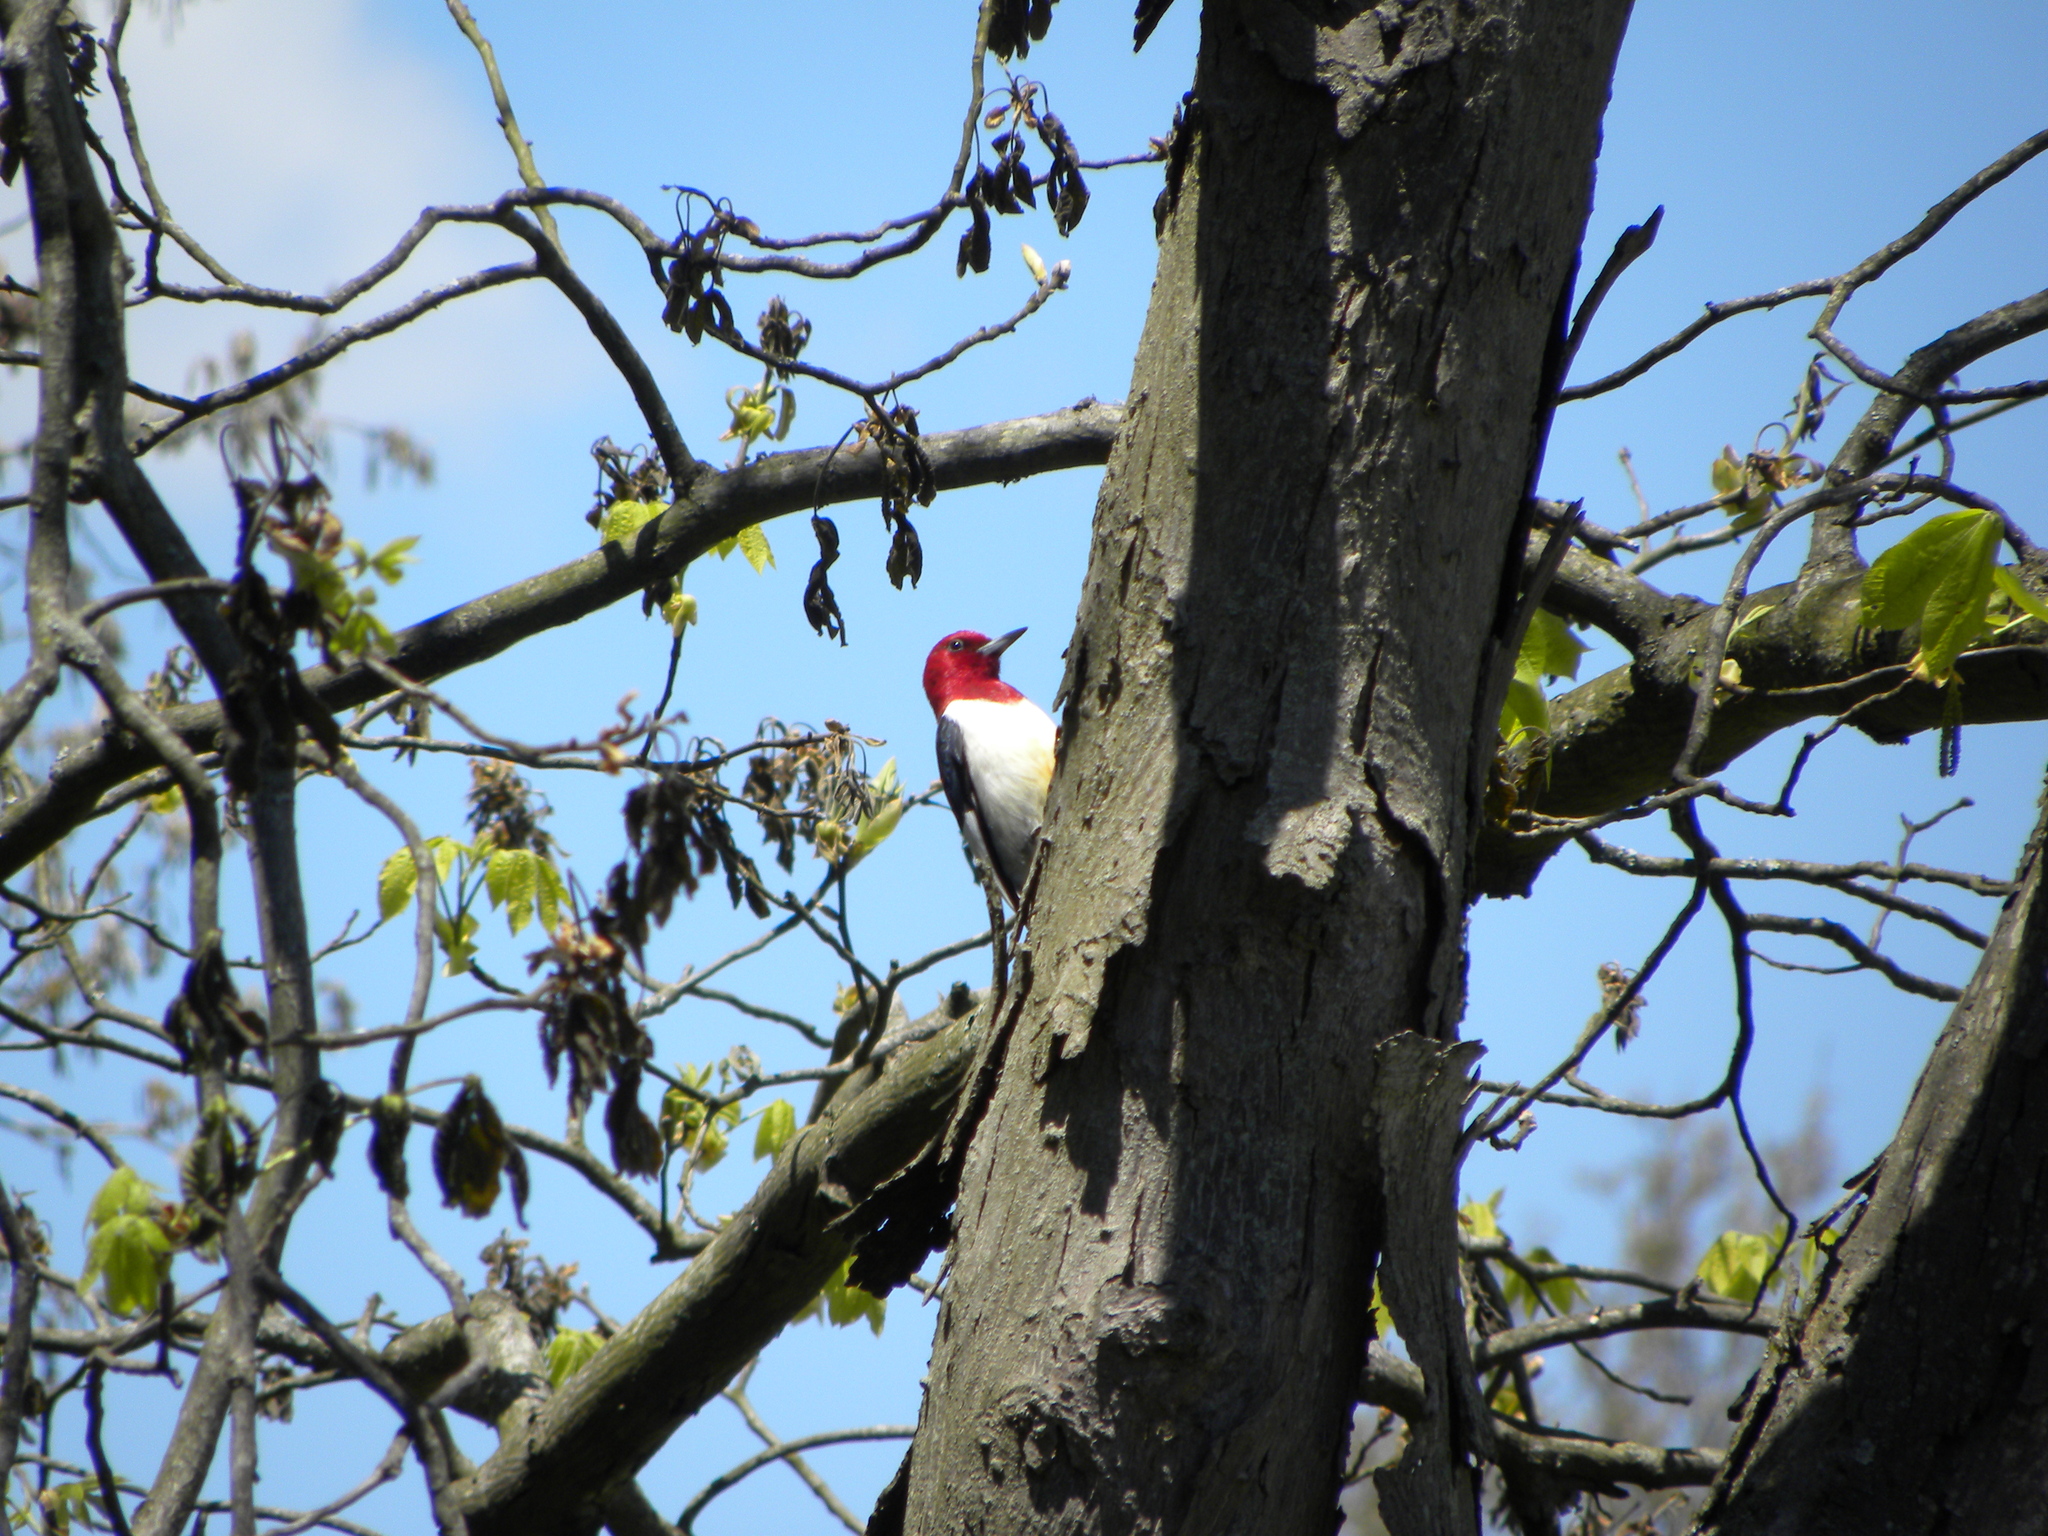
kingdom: Animalia
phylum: Chordata
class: Aves
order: Piciformes
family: Picidae
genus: Melanerpes
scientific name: Melanerpes erythrocephalus
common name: Red-headed woodpecker
